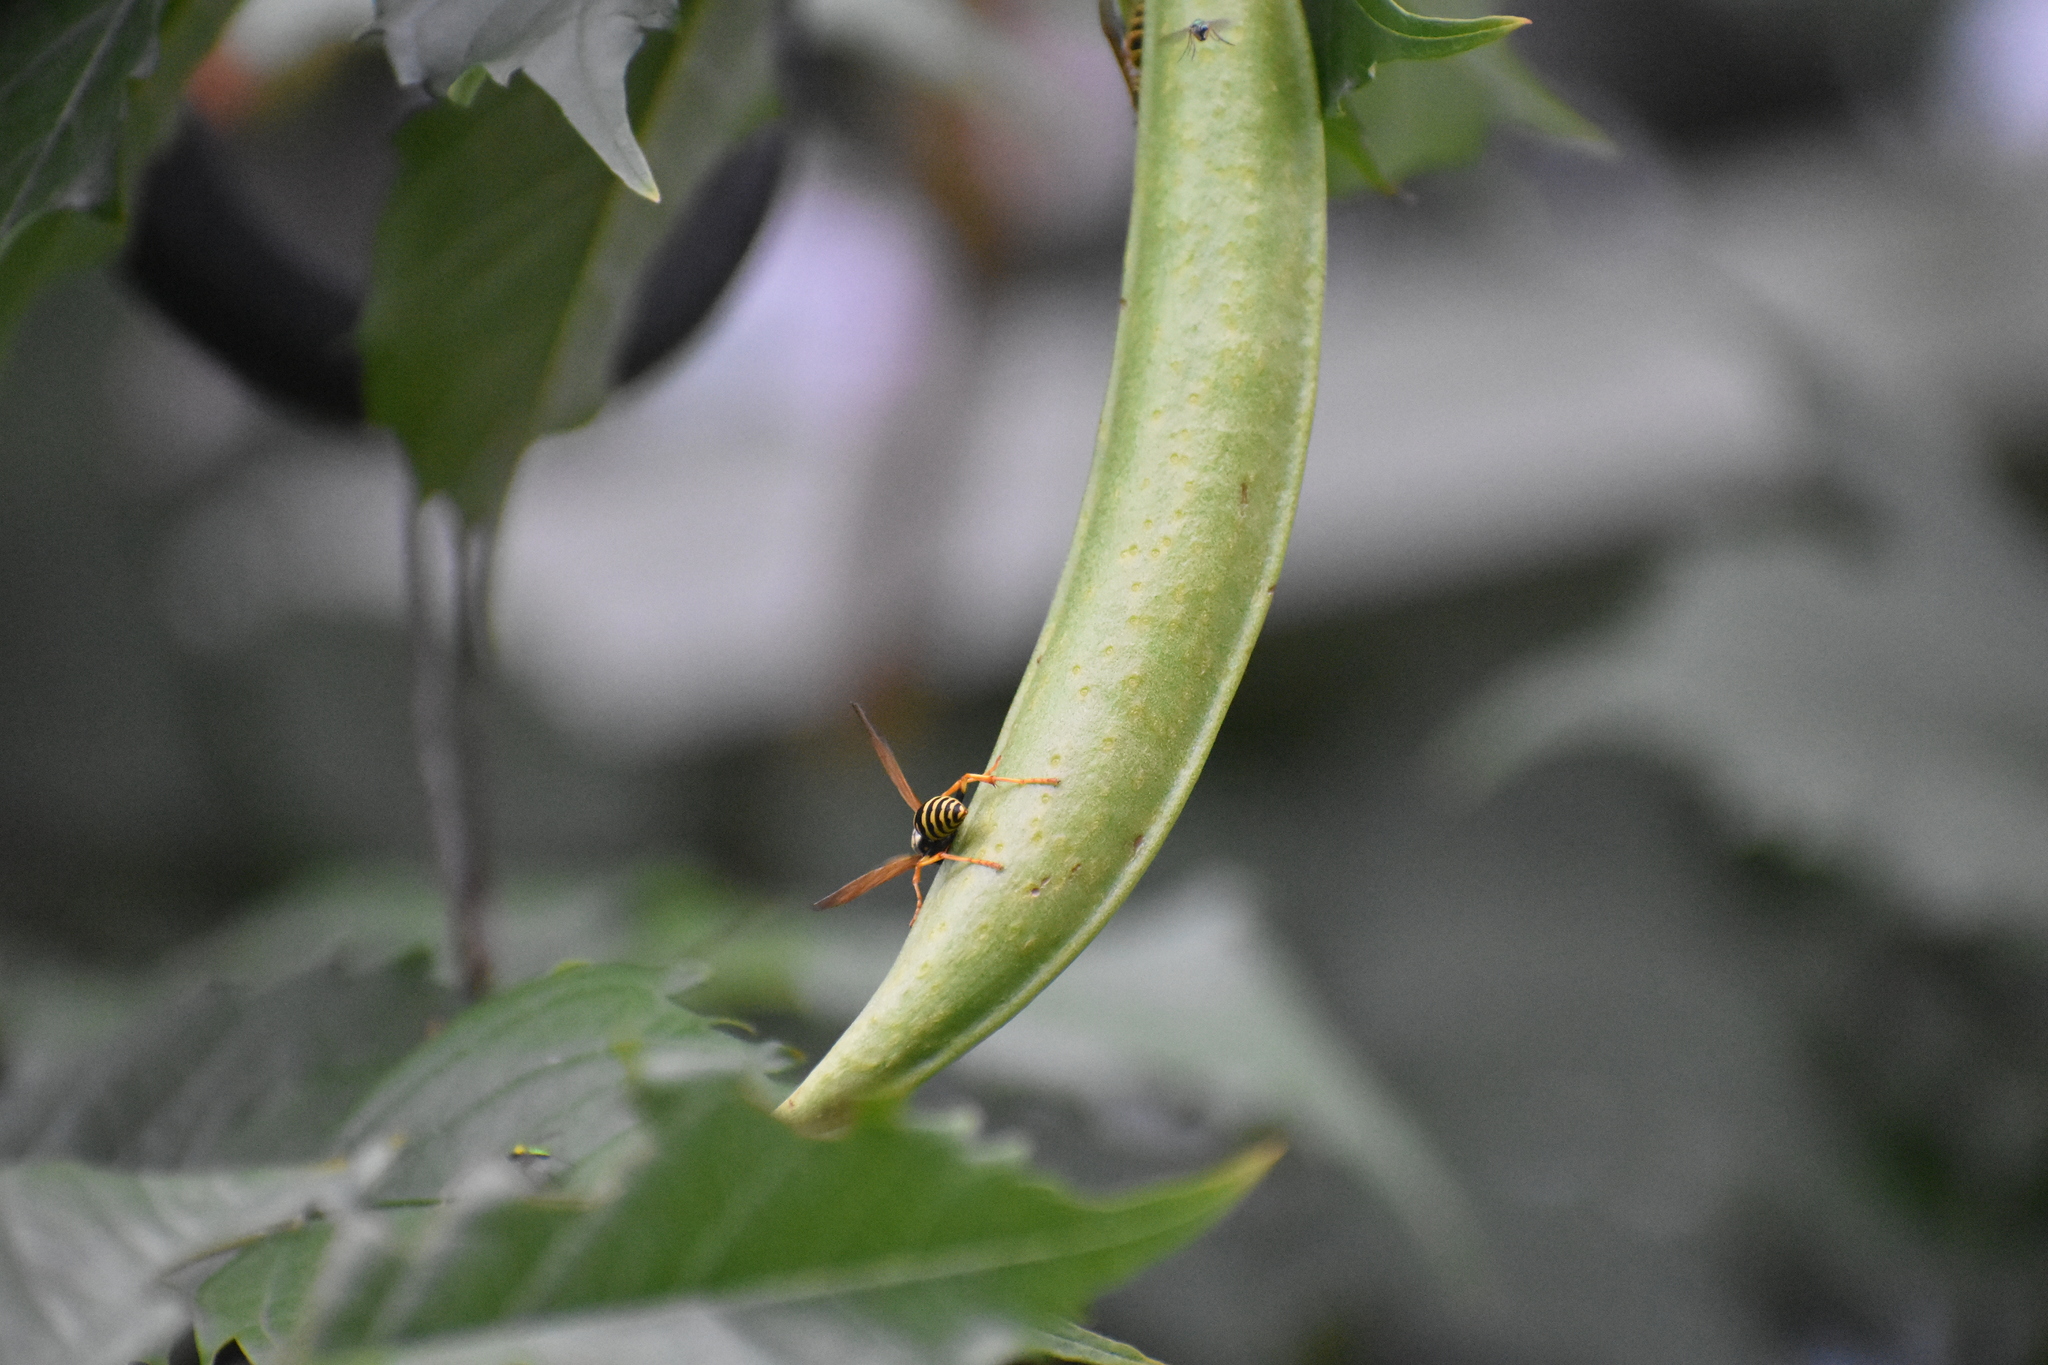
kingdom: Animalia
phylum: Arthropoda
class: Insecta
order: Hymenoptera
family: Eumenidae
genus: Polistes
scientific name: Polistes dominula
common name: Paper wasp
